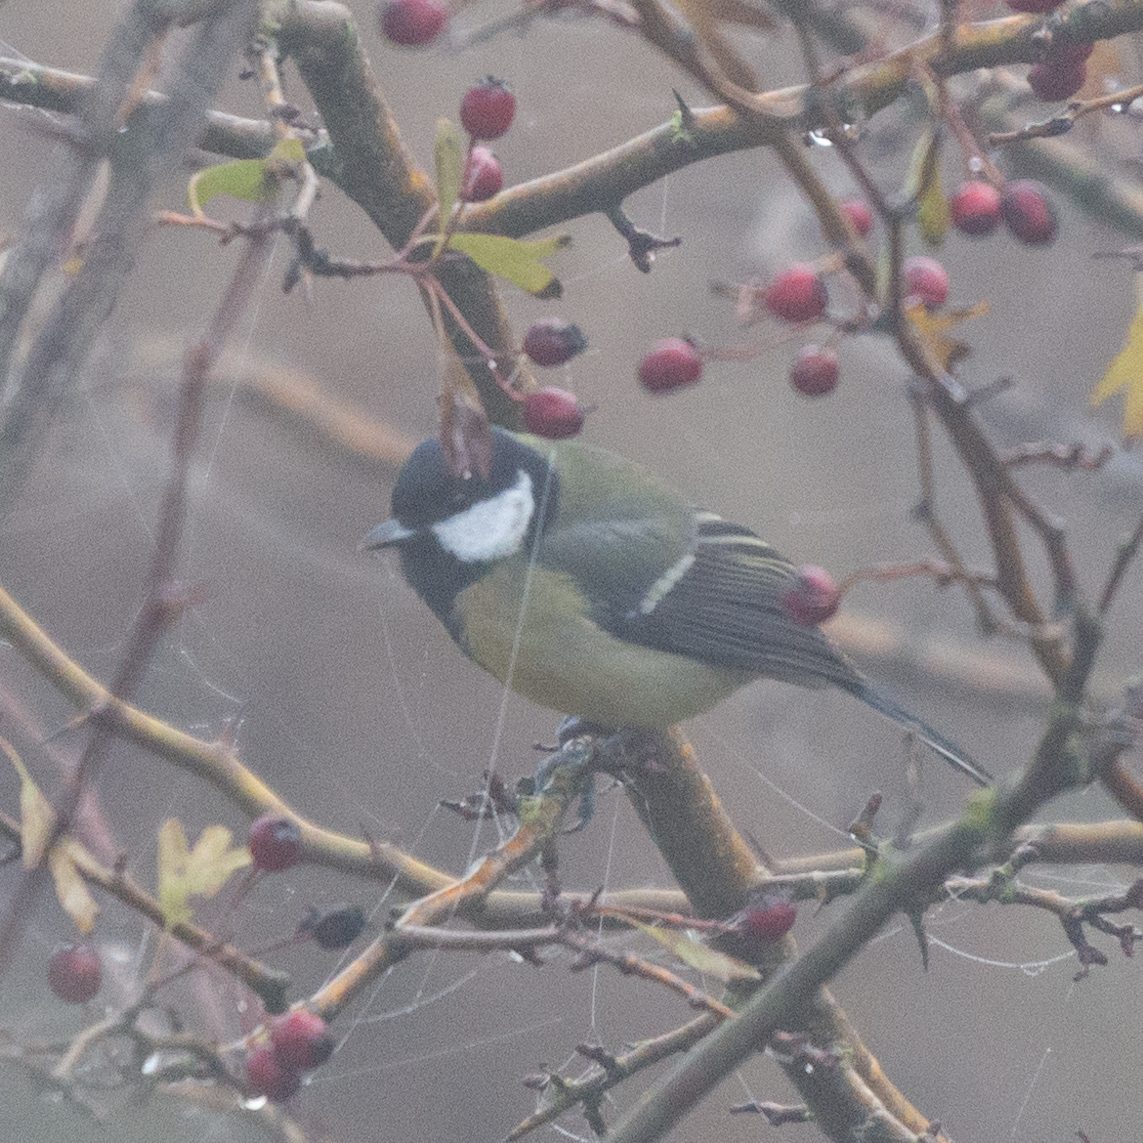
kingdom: Animalia
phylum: Chordata
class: Aves
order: Passeriformes
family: Paridae
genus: Parus
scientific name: Parus major
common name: Great tit
